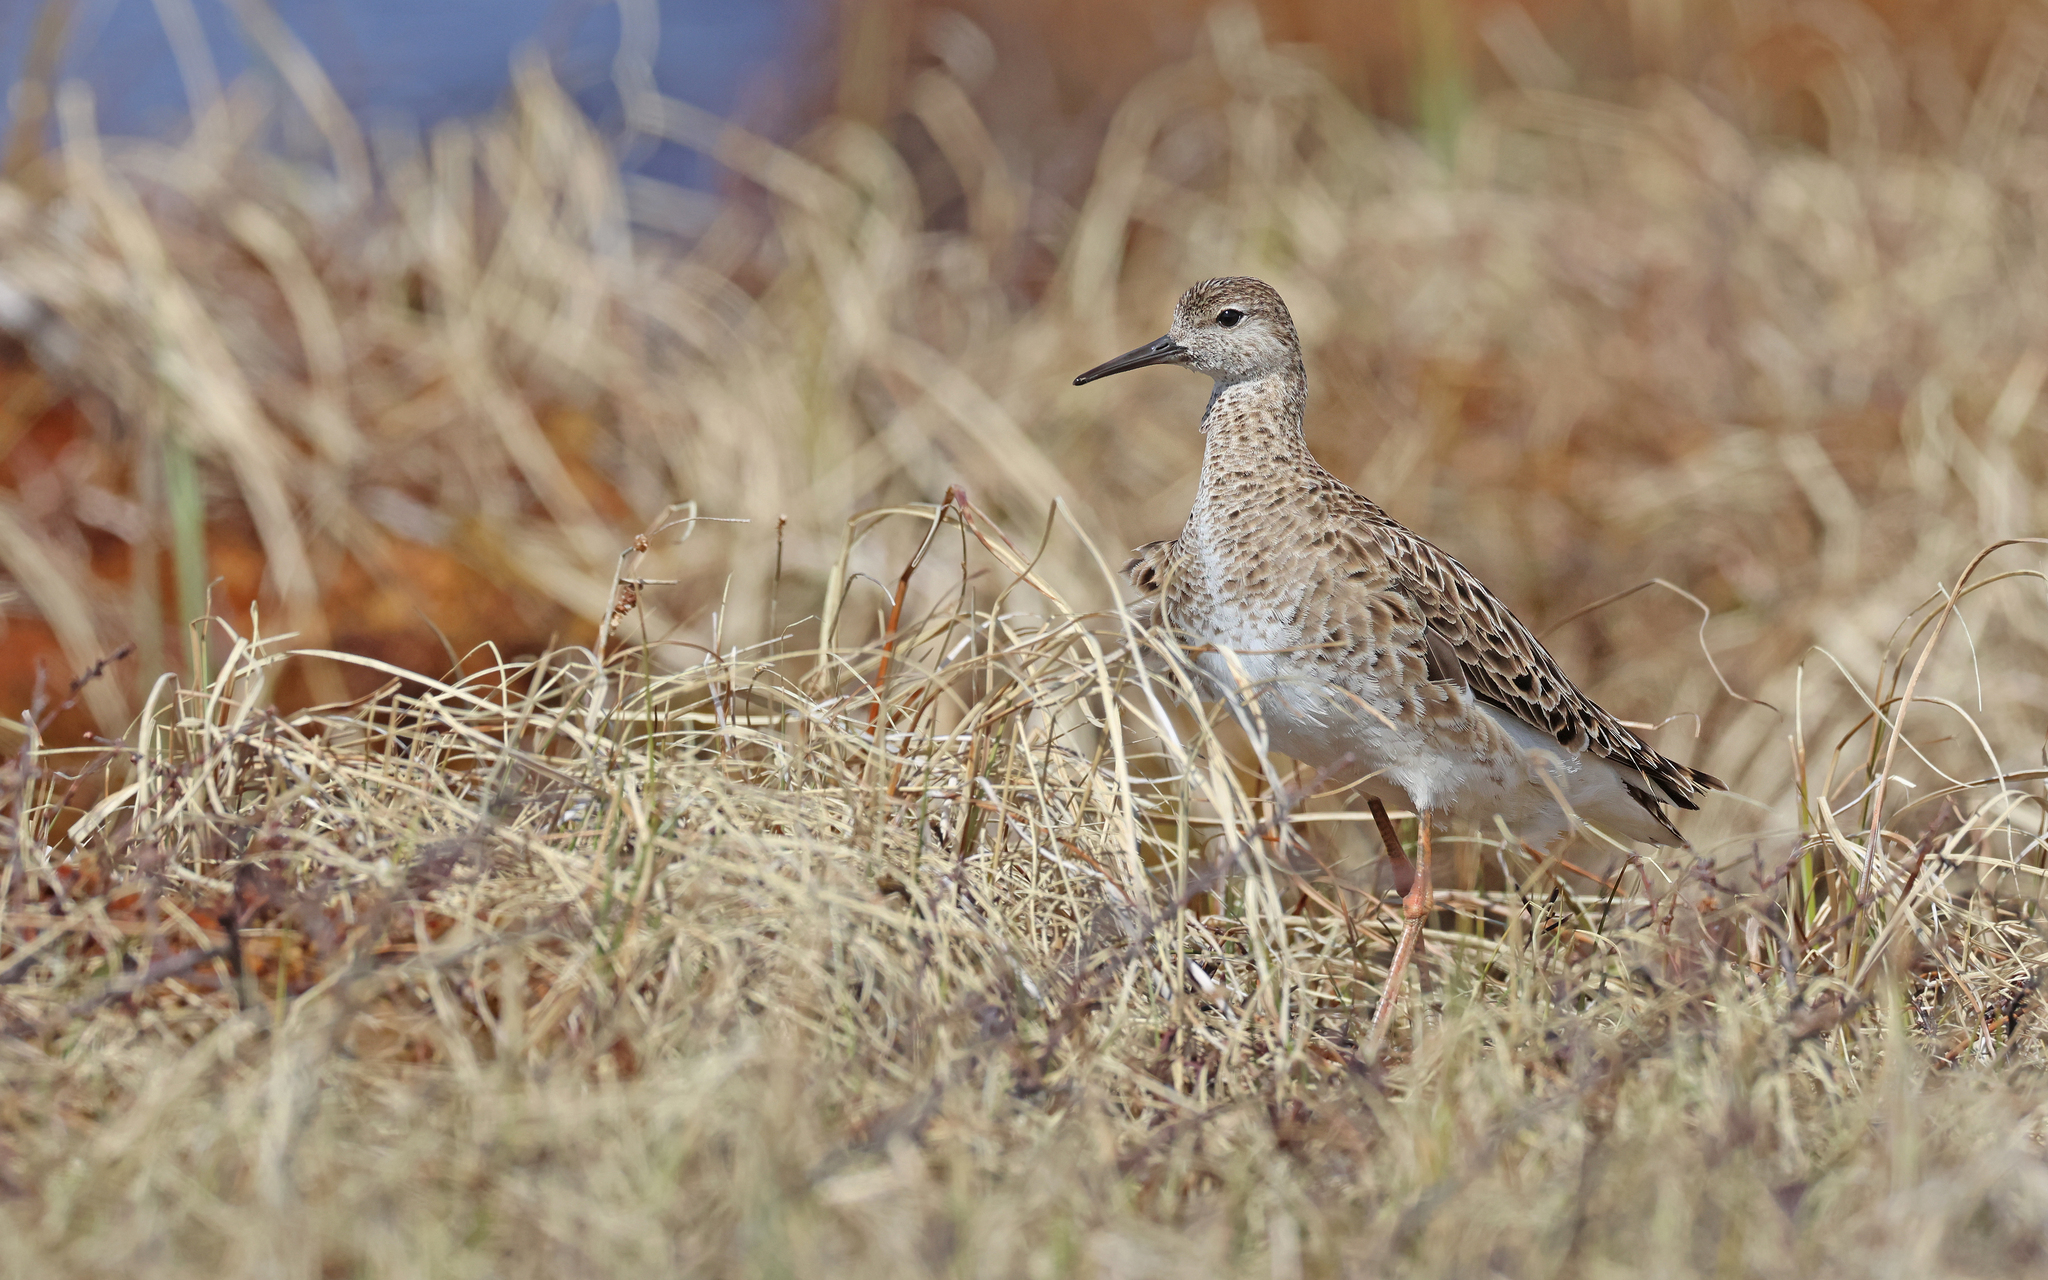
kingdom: Animalia
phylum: Chordata
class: Aves
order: Charadriiformes
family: Scolopacidae
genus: Calidris
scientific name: Calidris pugnax
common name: Ruff
